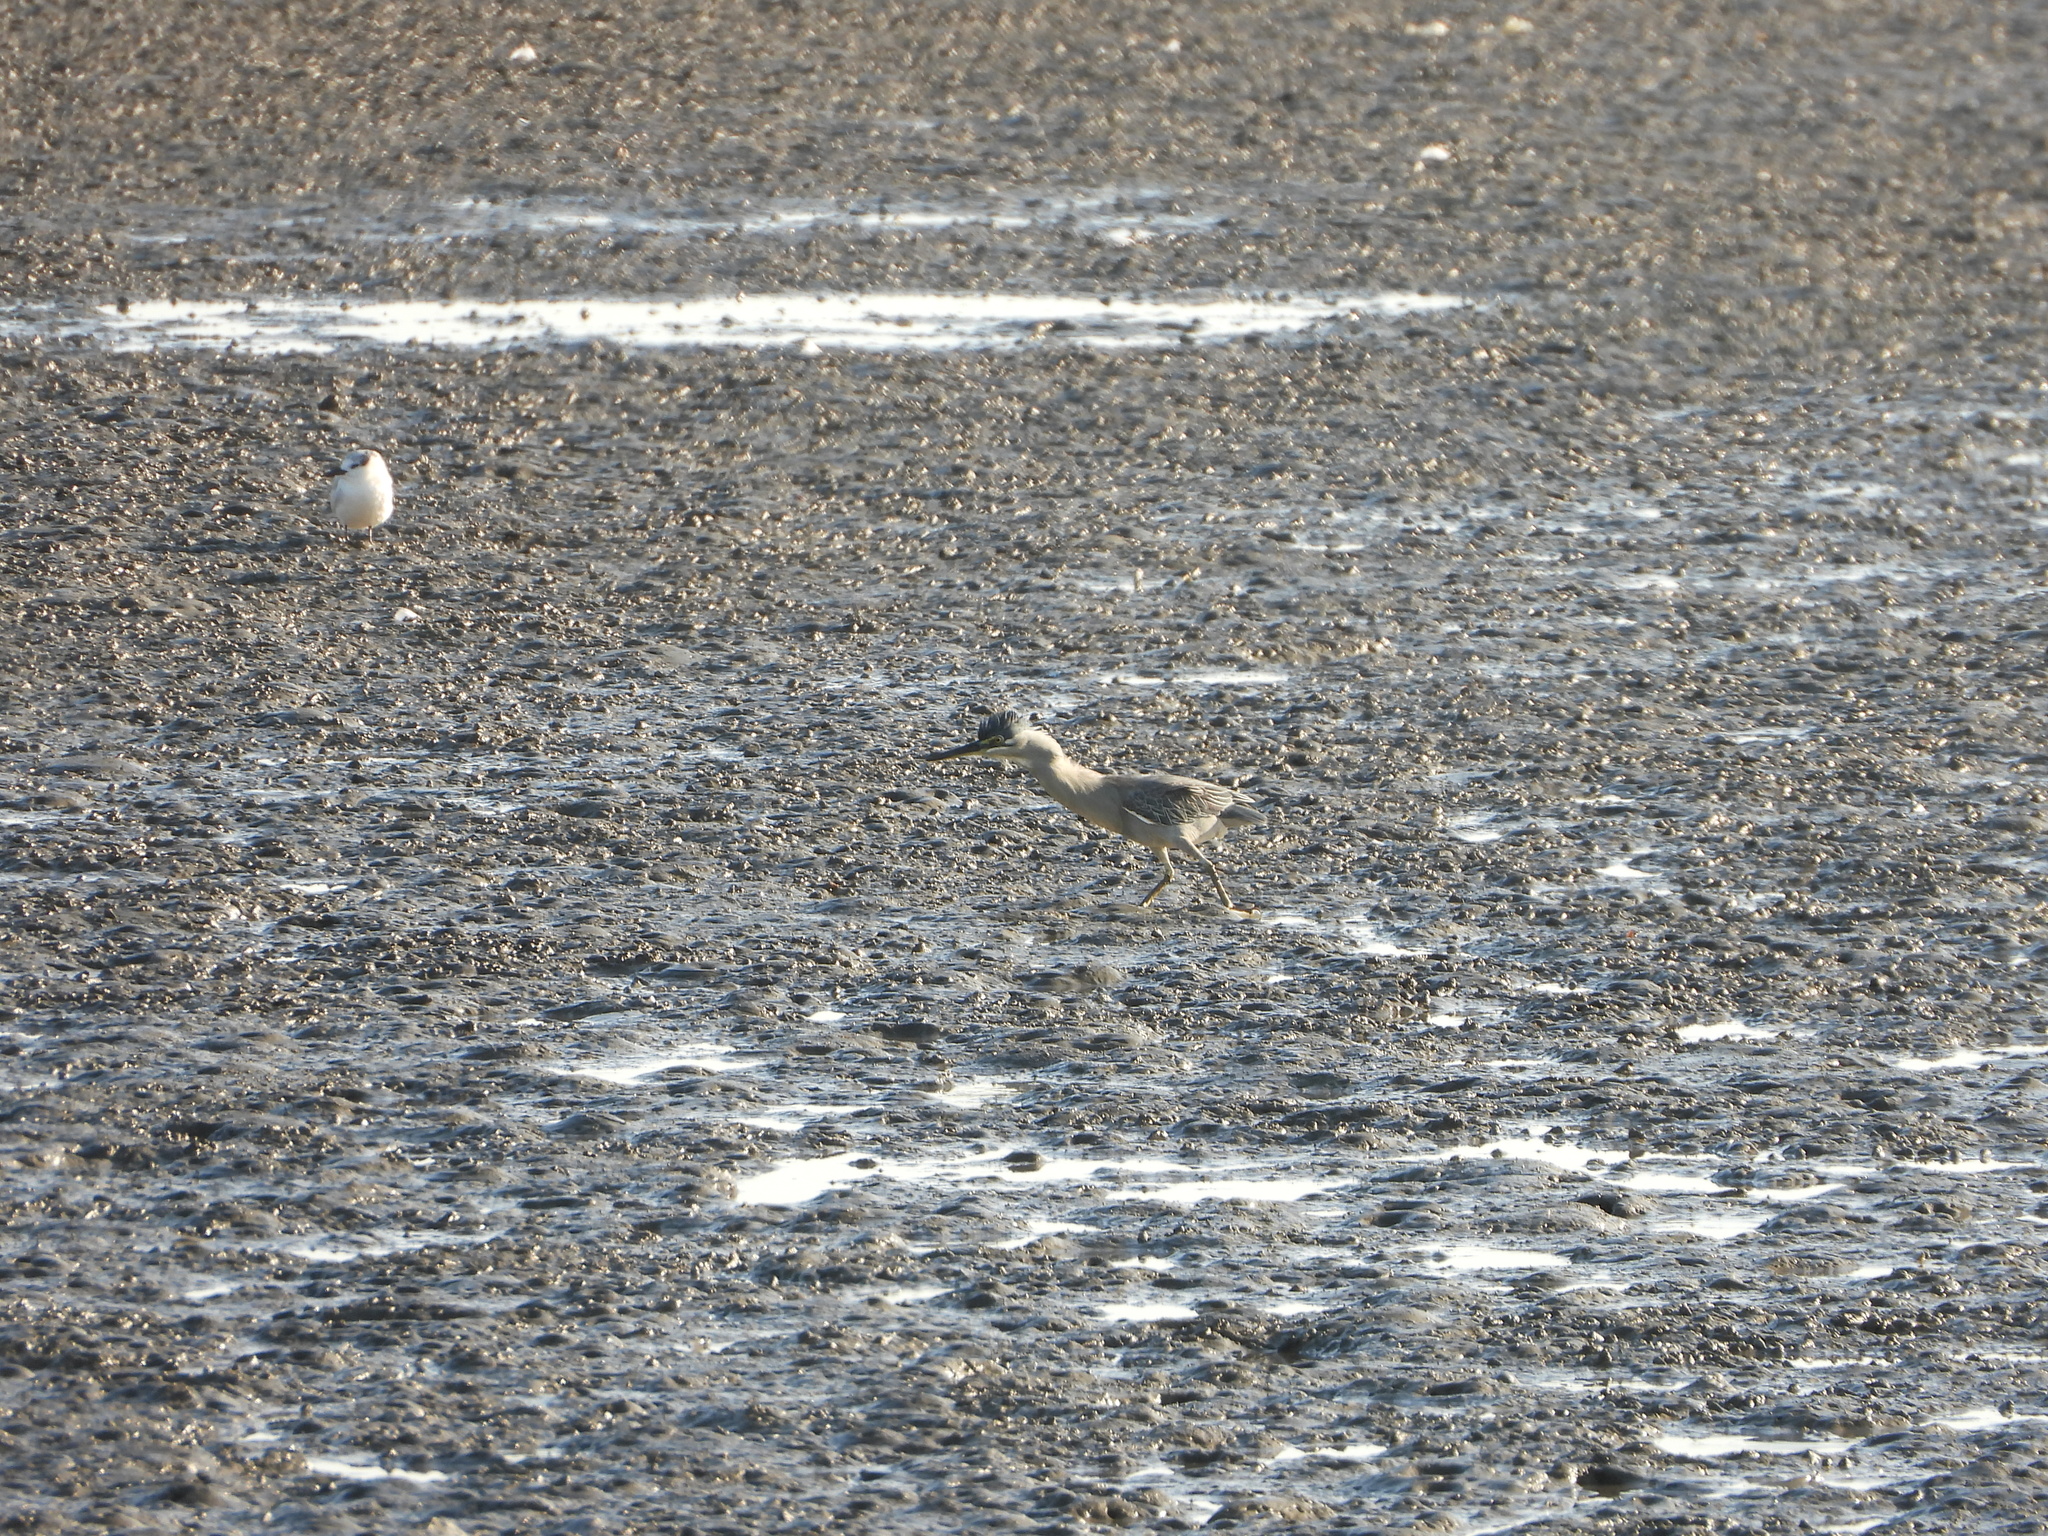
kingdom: Animalia
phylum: Chordata
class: Aves
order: Pelecaniformes
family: Ardeidae
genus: Butorides
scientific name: Butorides striata
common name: Striated heron
